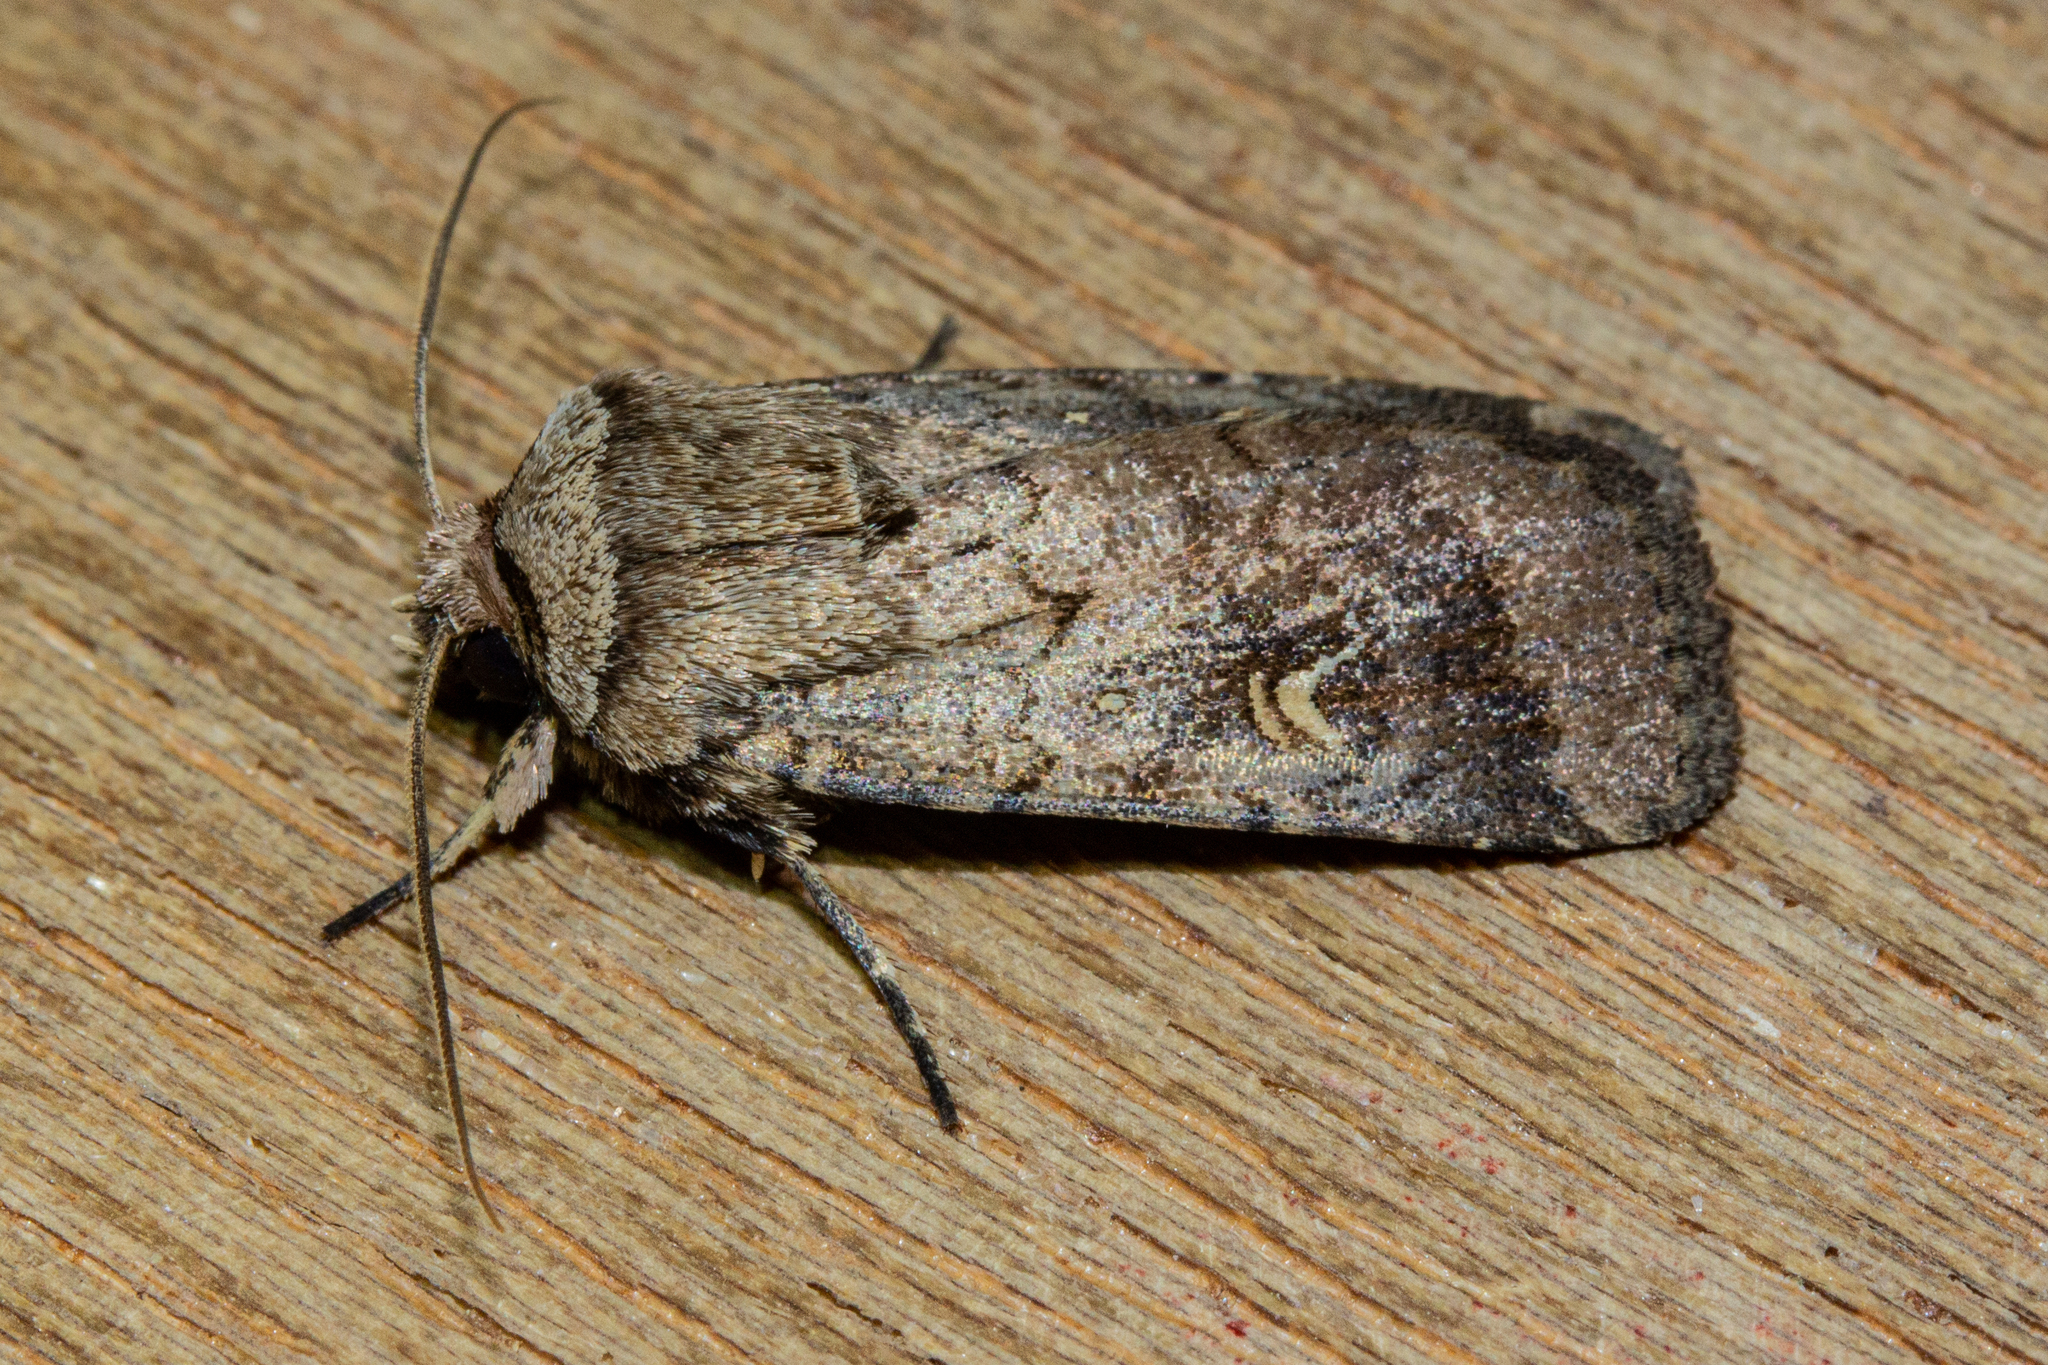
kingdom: Animalia
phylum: Arthropoda
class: Insecta
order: Lepidoptera
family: Noctuidae
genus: Proteuxoa
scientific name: Proteuxoa tetronycha
